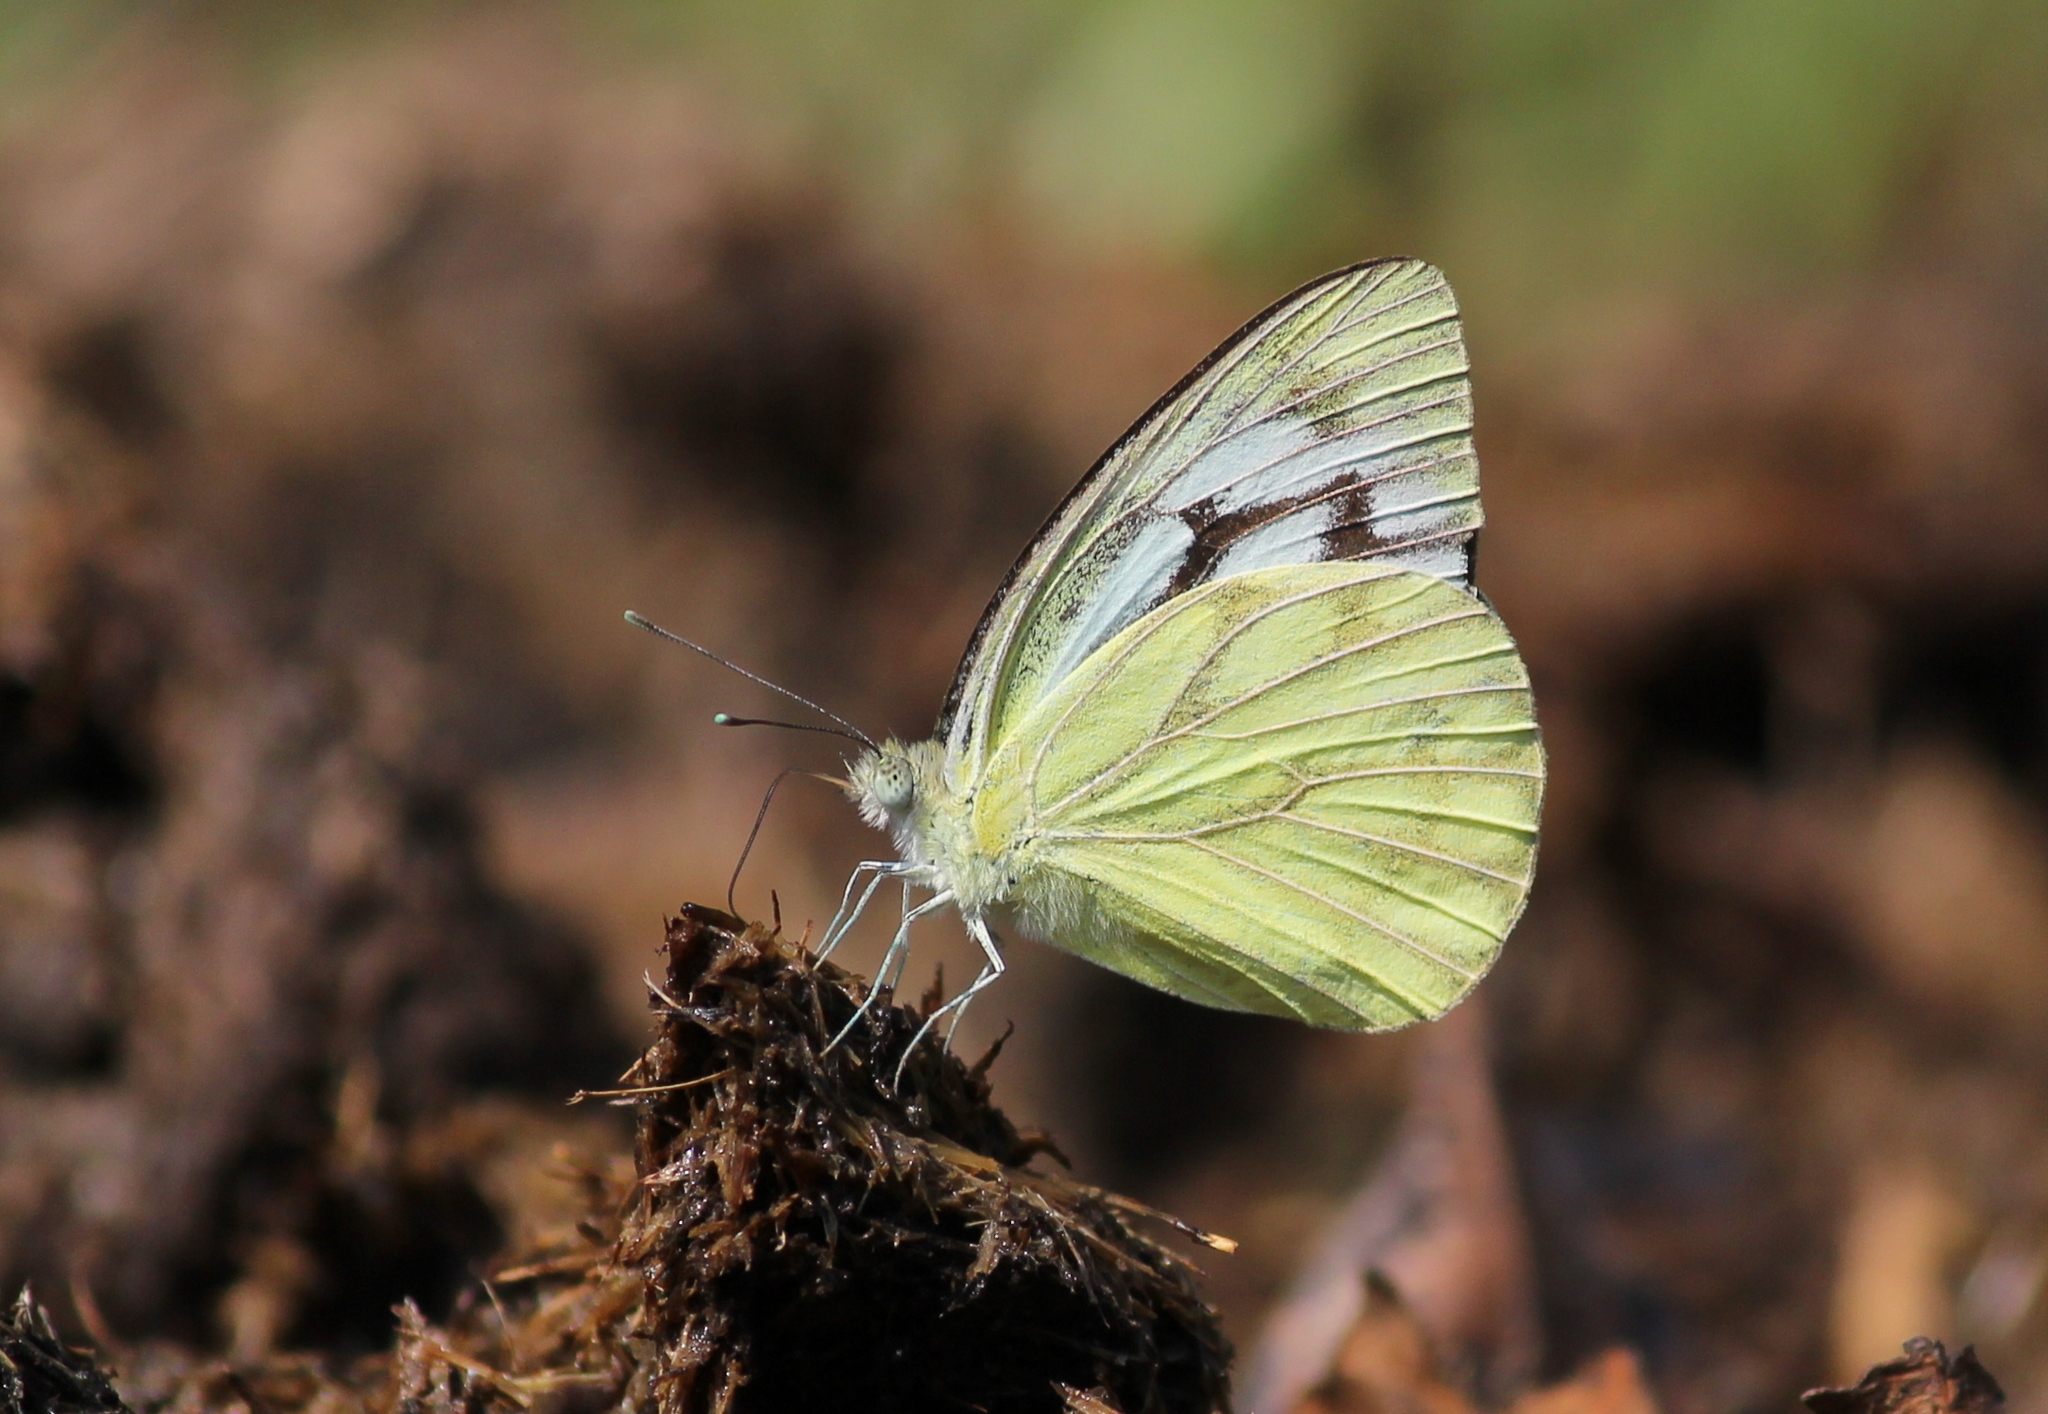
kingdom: Animalia
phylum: Arthropoda
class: Insecta
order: Lepidoptera
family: Pieridae
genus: Cepora
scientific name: Cepora nerissa
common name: Common gull
